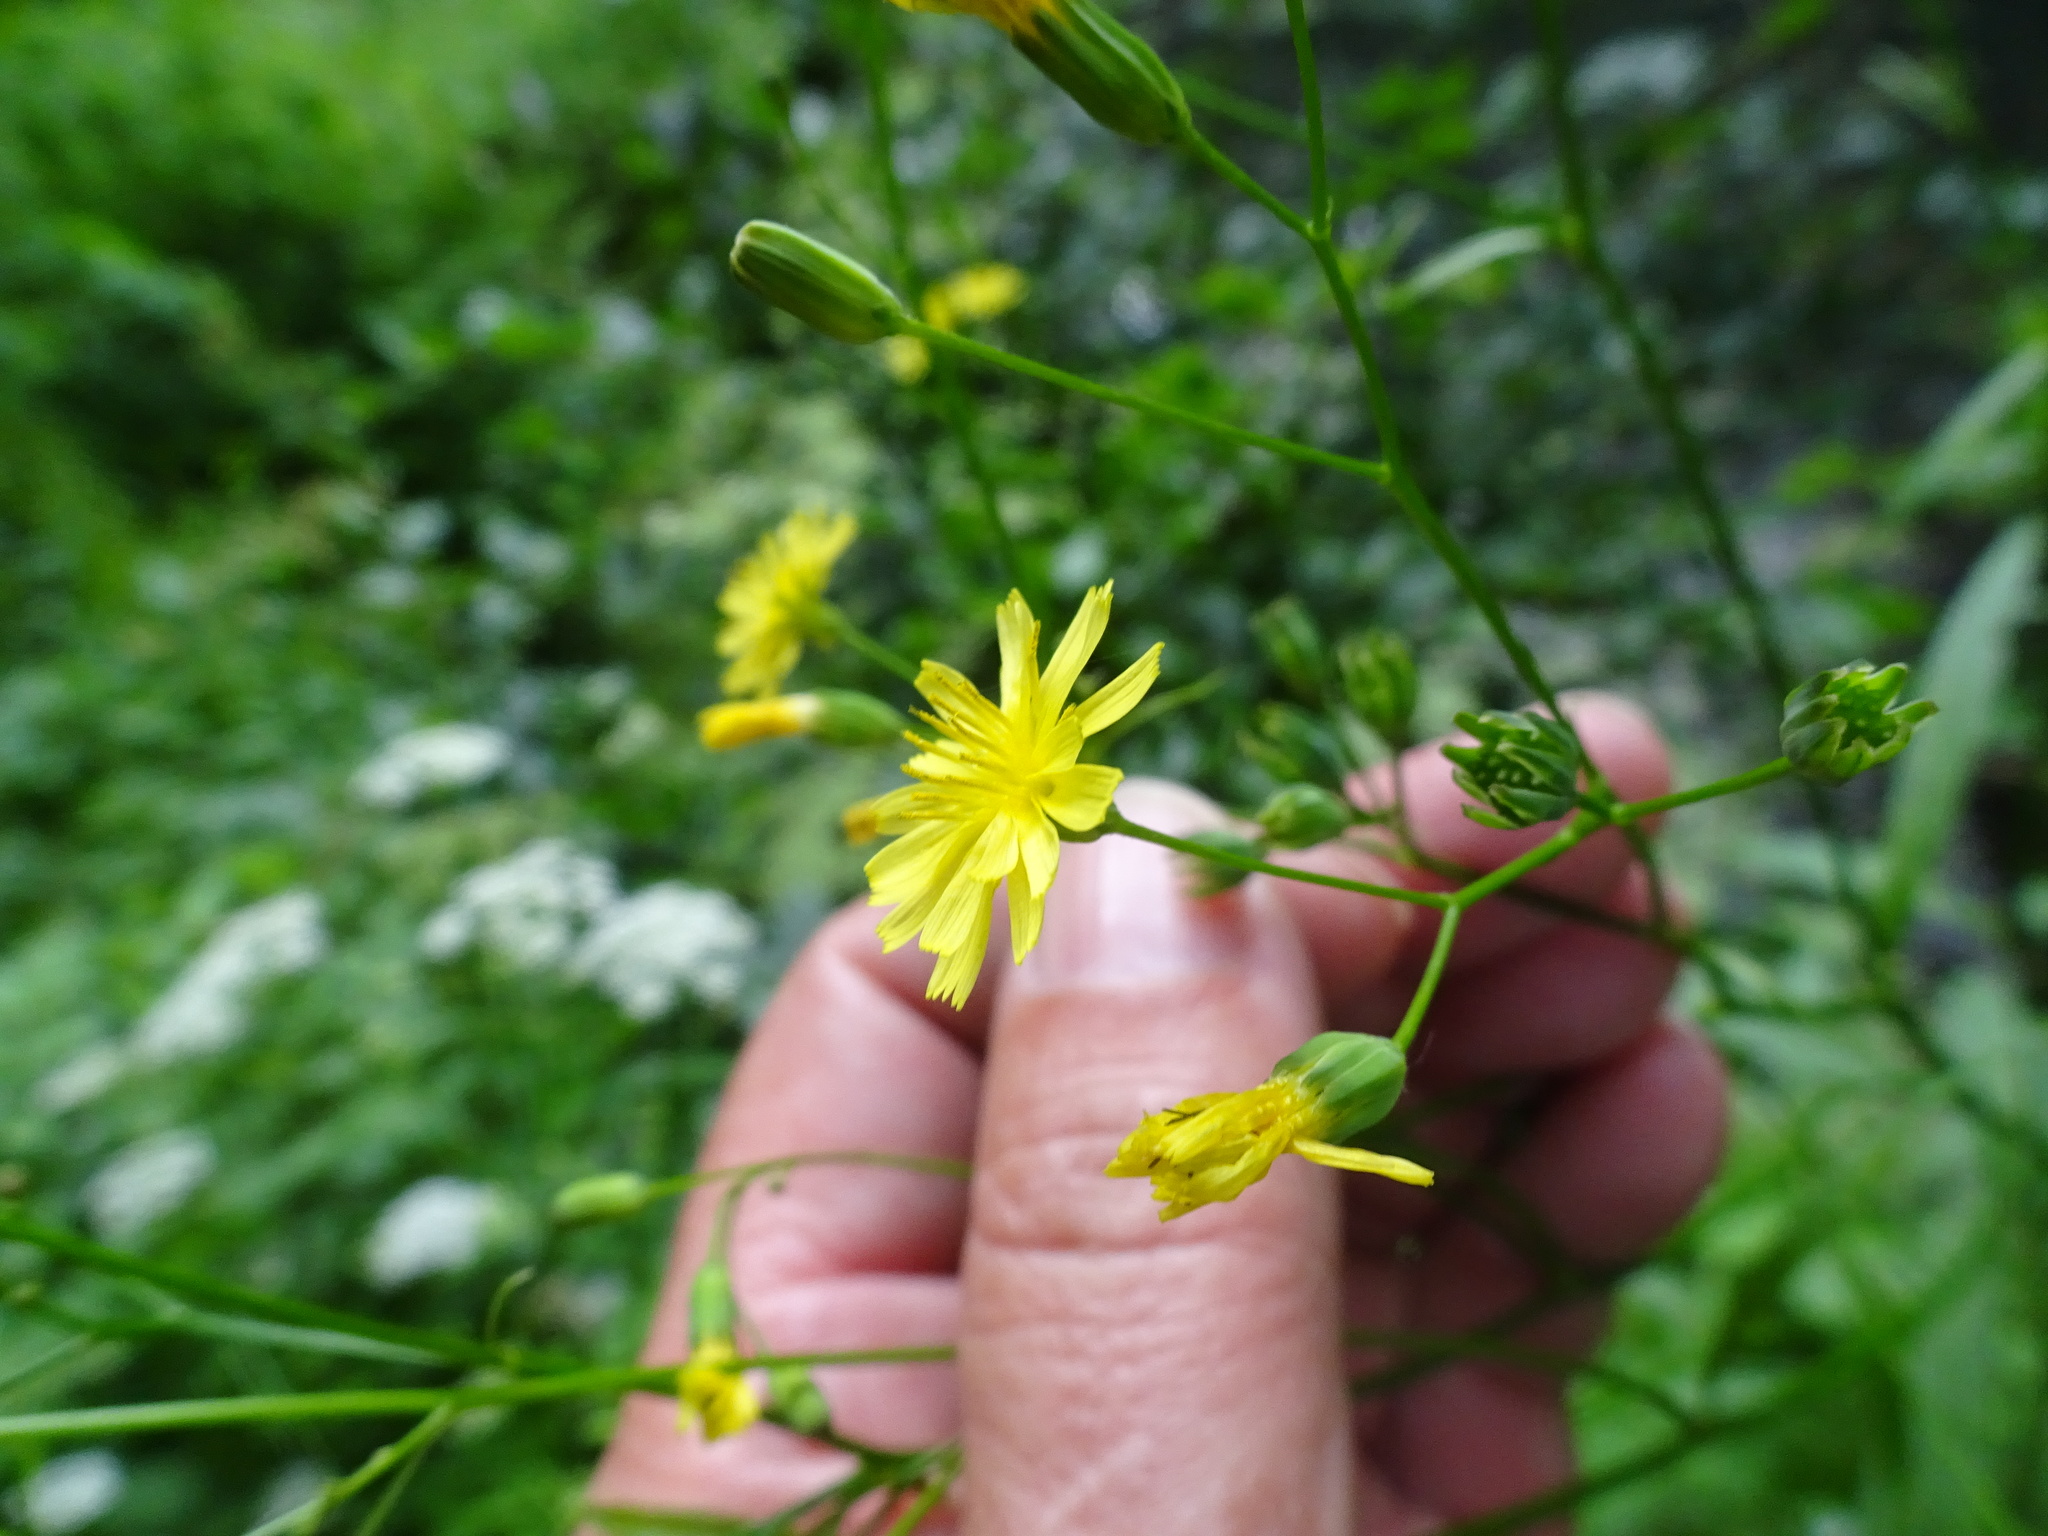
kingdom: Plantae
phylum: Tracheophyta
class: Magnoliopsida
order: Asterales
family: Asteraceae
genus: Lapsana
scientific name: Lapsana communis
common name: Nipplewort
